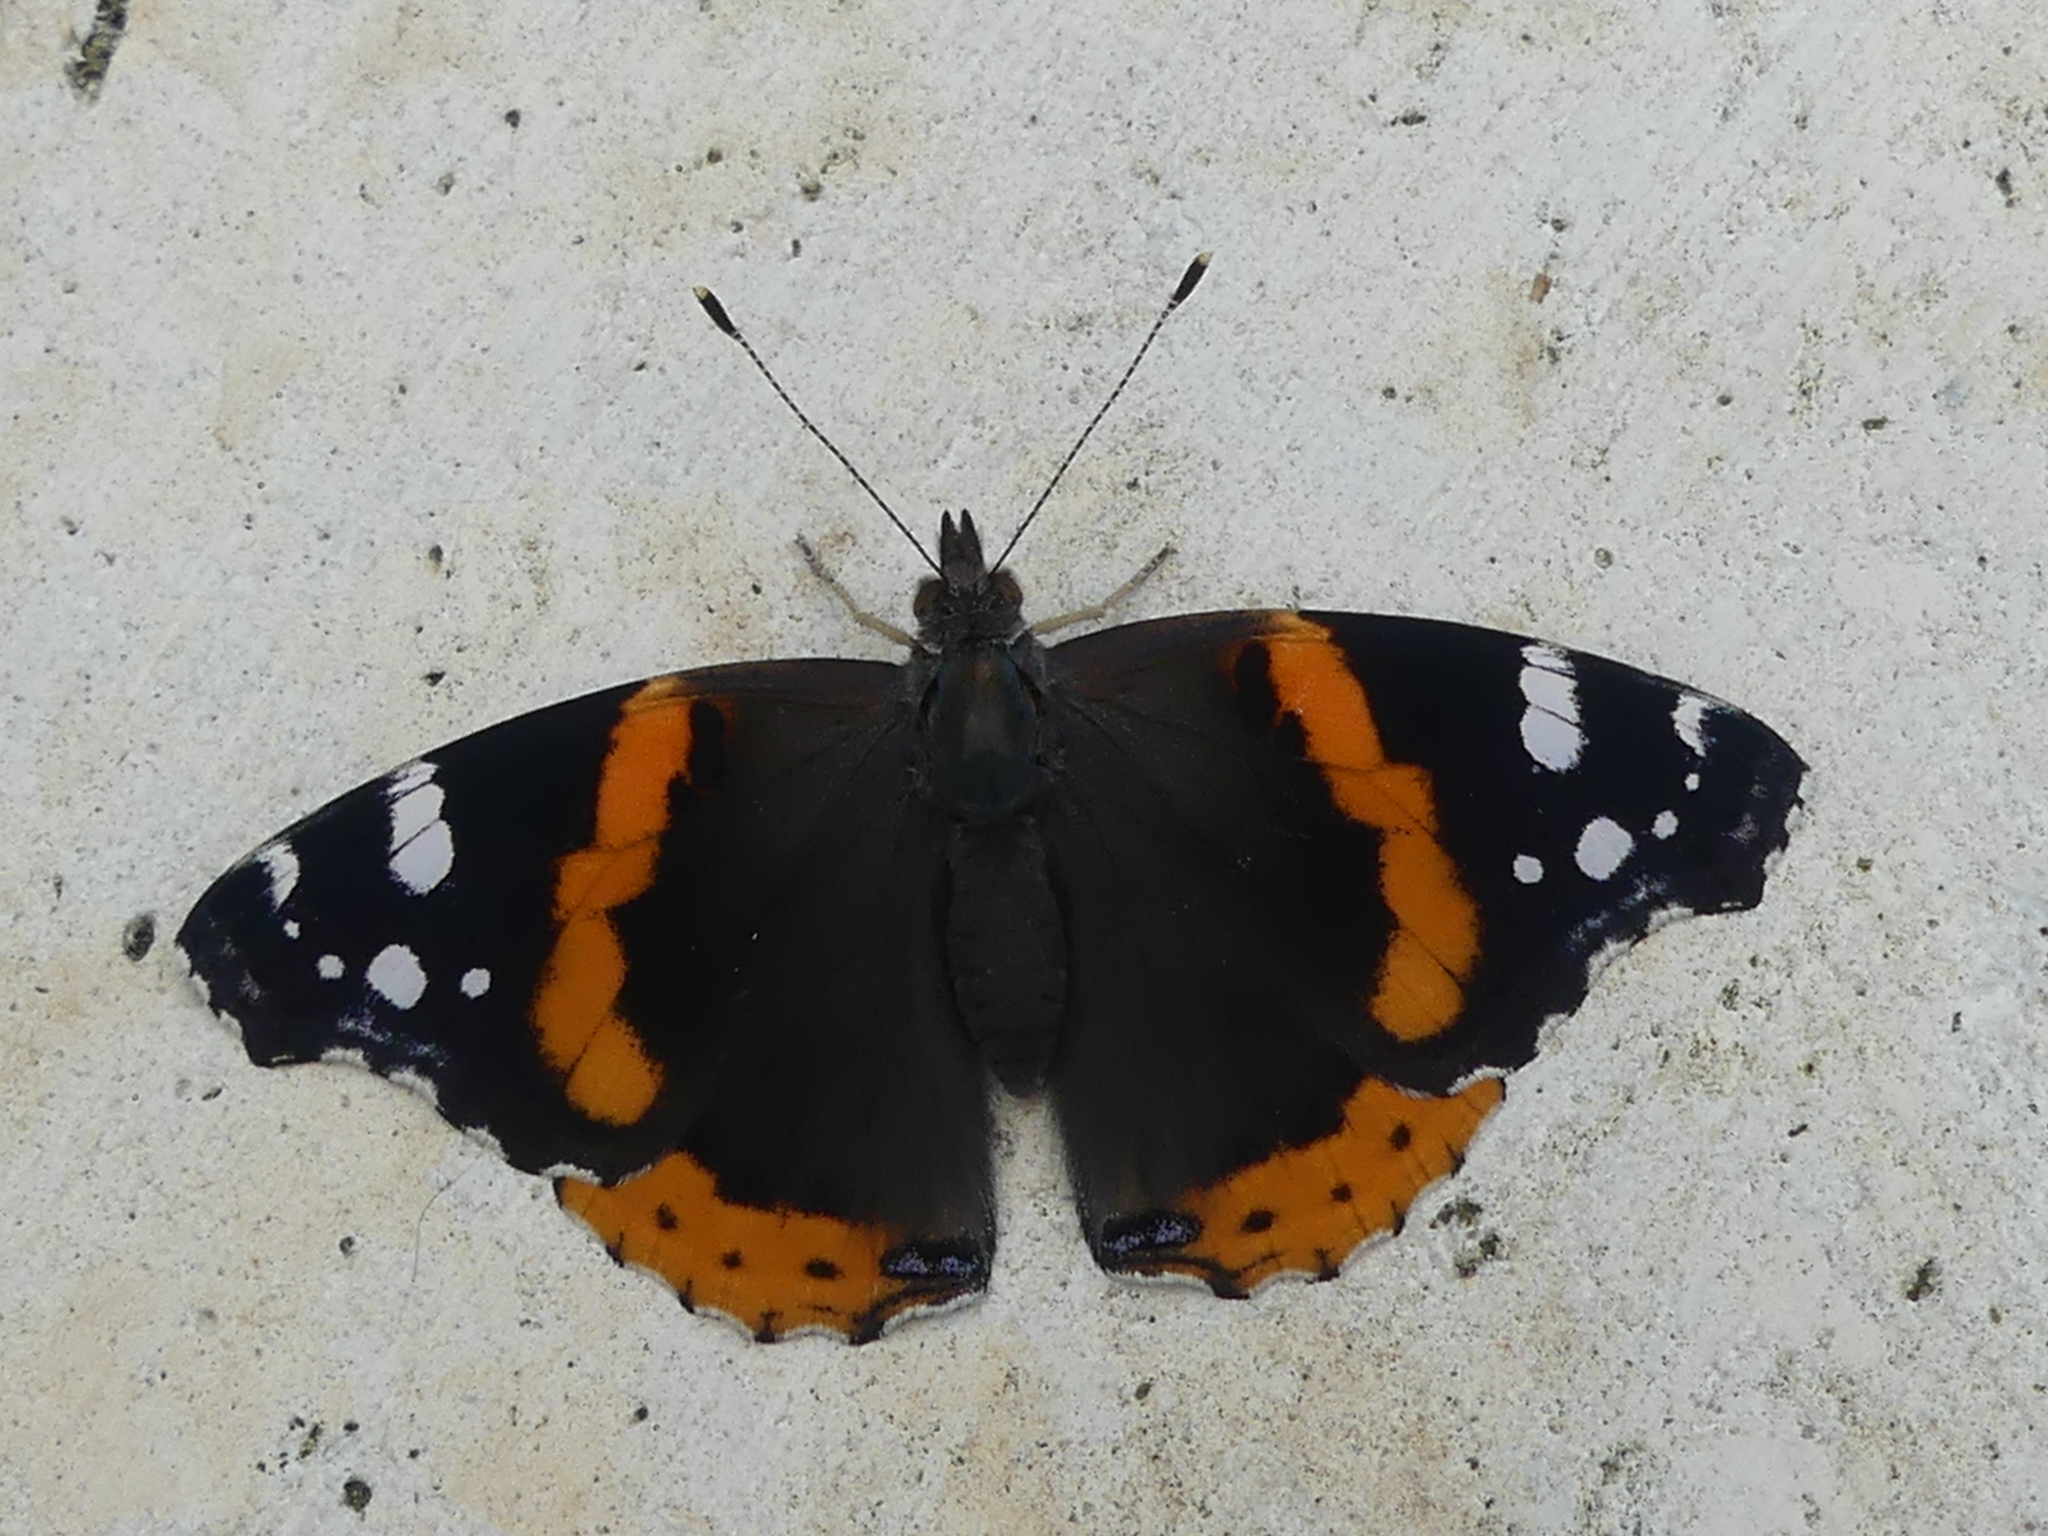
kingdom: Animalia
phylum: Arthropoda
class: Insecta
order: Lepidoptera
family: Nymphalidae
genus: Vanessa
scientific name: Vanessa atalanta
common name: Red admiral
